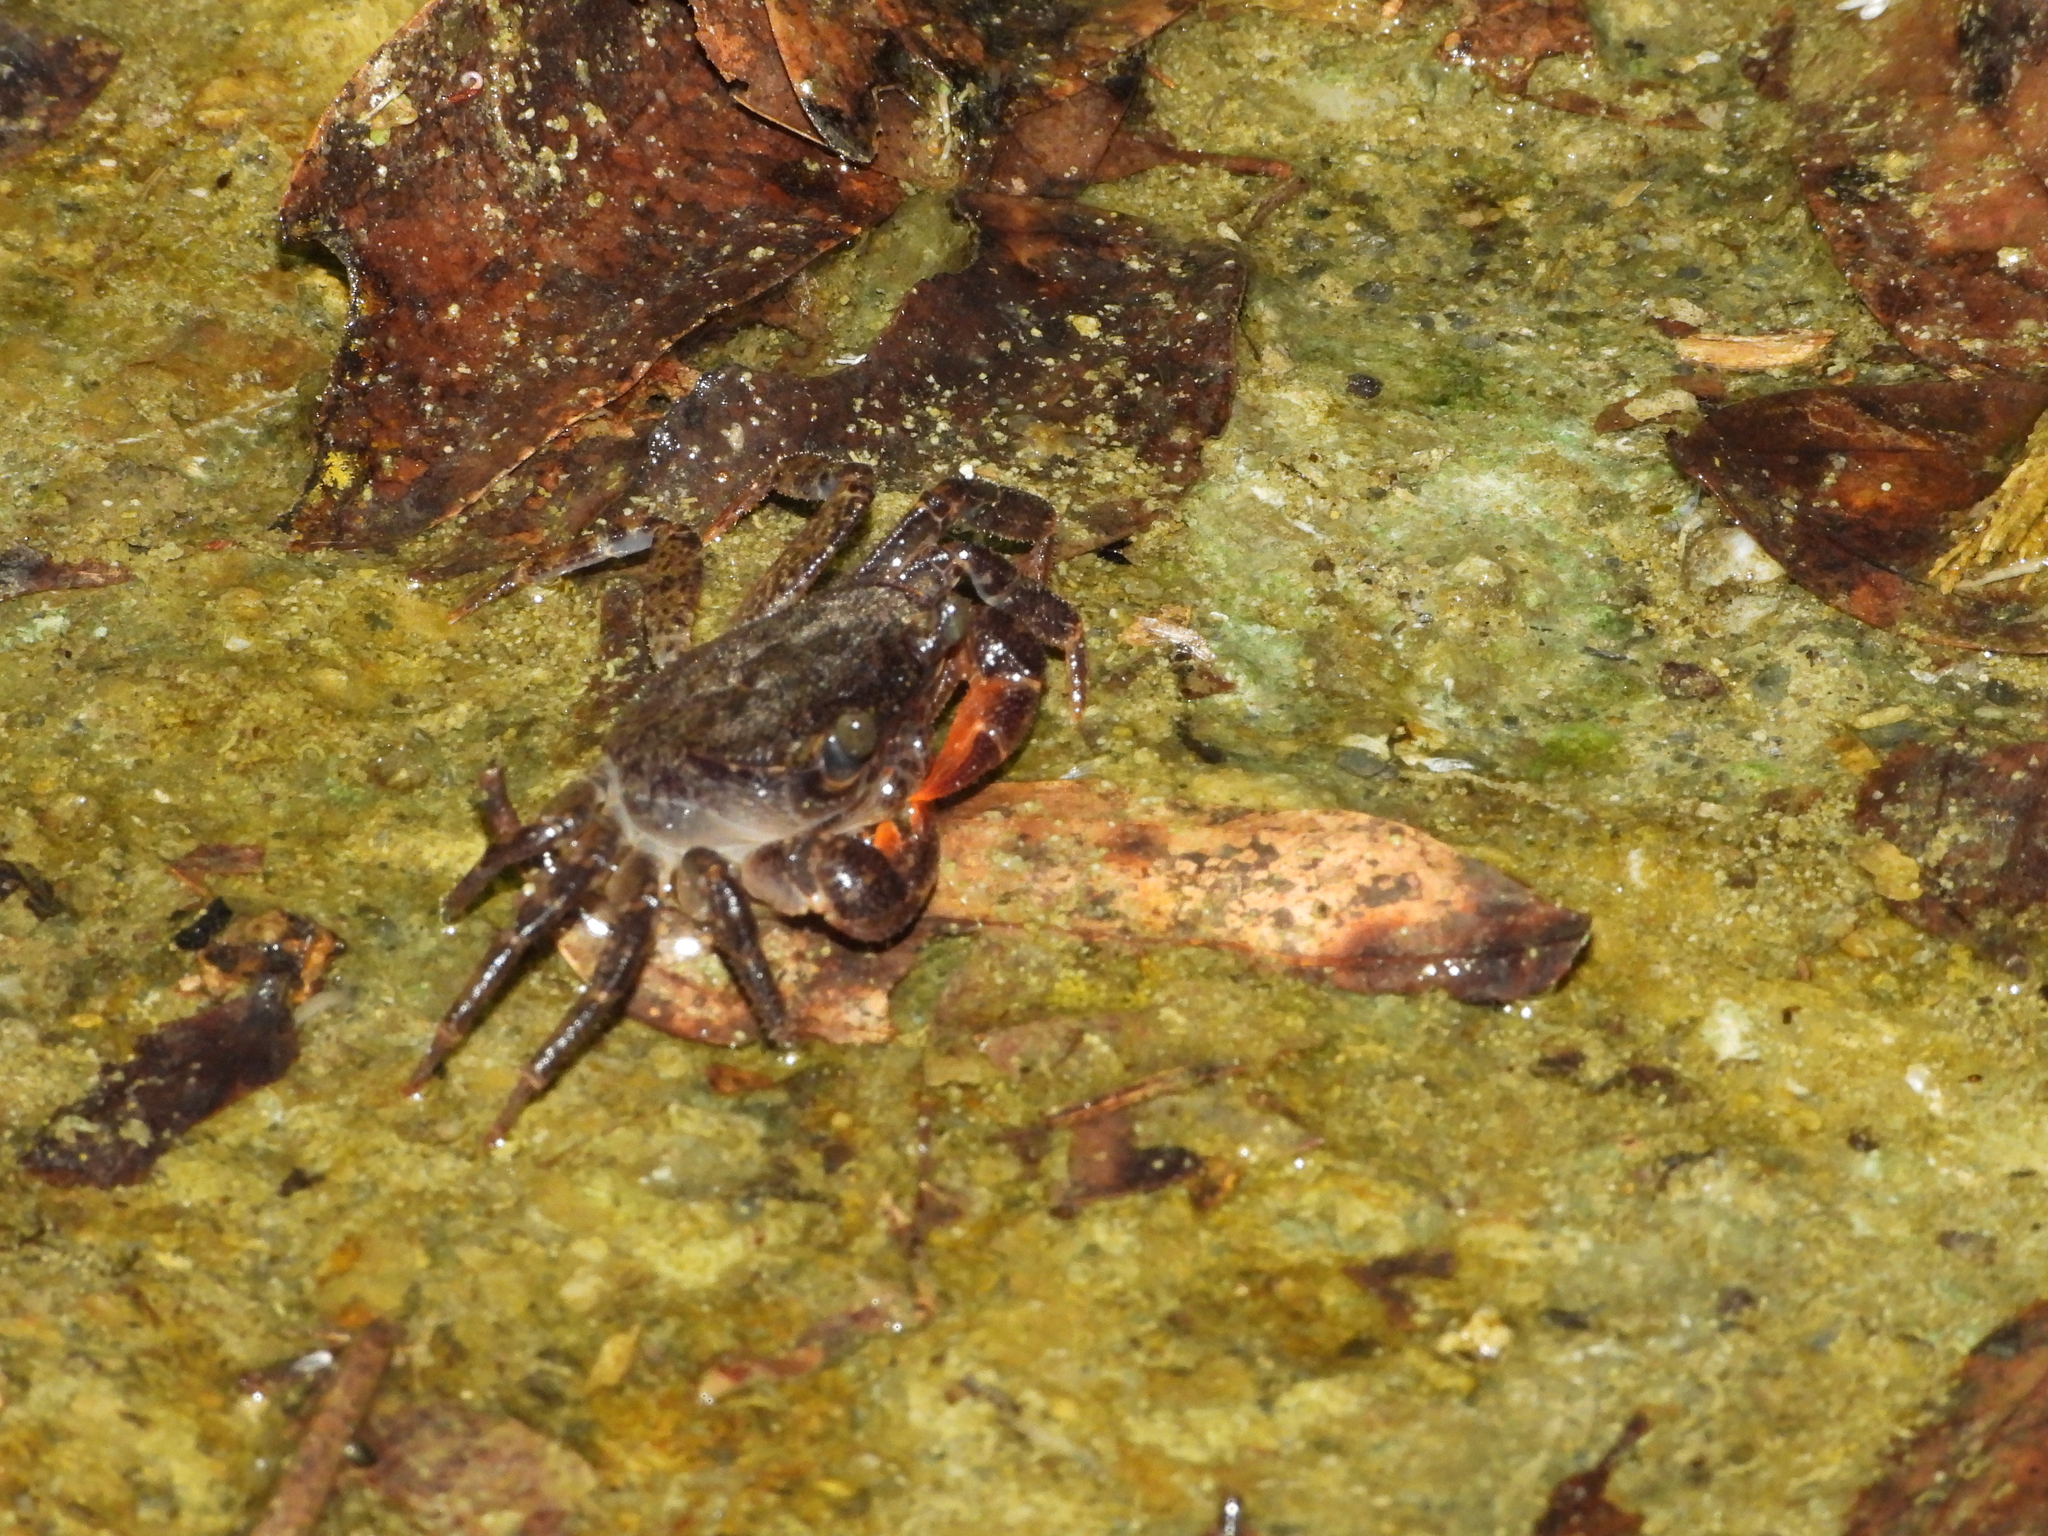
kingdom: Animalia
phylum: Arthropoda
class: Malacostraca
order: Decapoda
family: Potamidae
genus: Candidiopotamon
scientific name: Candidiopotamon rathbuni
